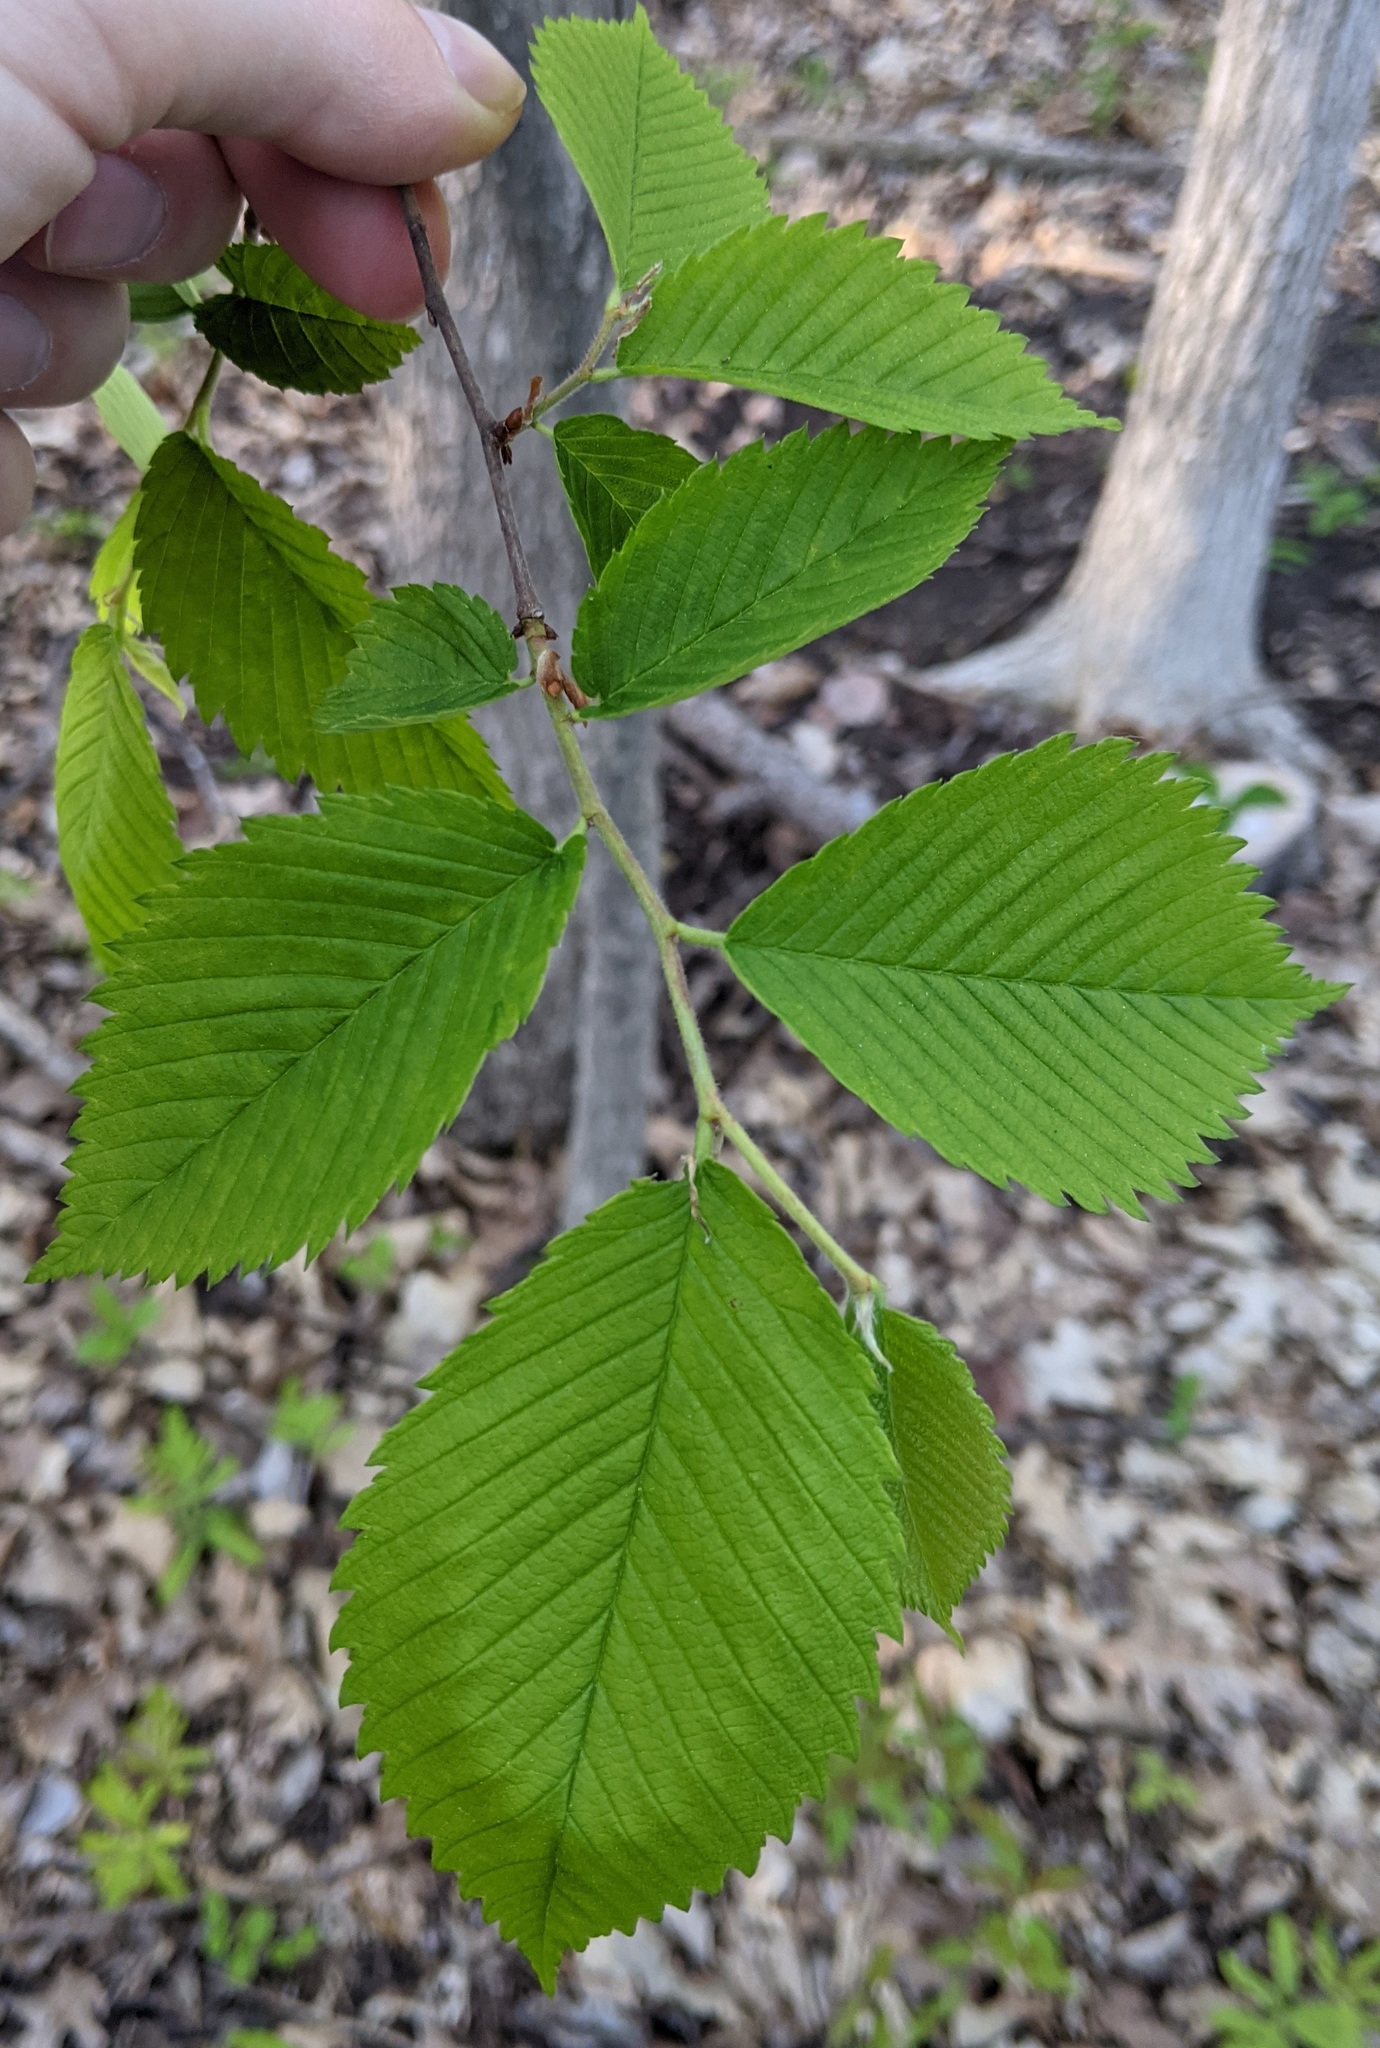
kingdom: Plantae
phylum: Tracheophyta
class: Magnoliopsida
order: Rosales
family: Ulmaceae
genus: Ulmus
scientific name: Ulmus americana
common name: American elm
